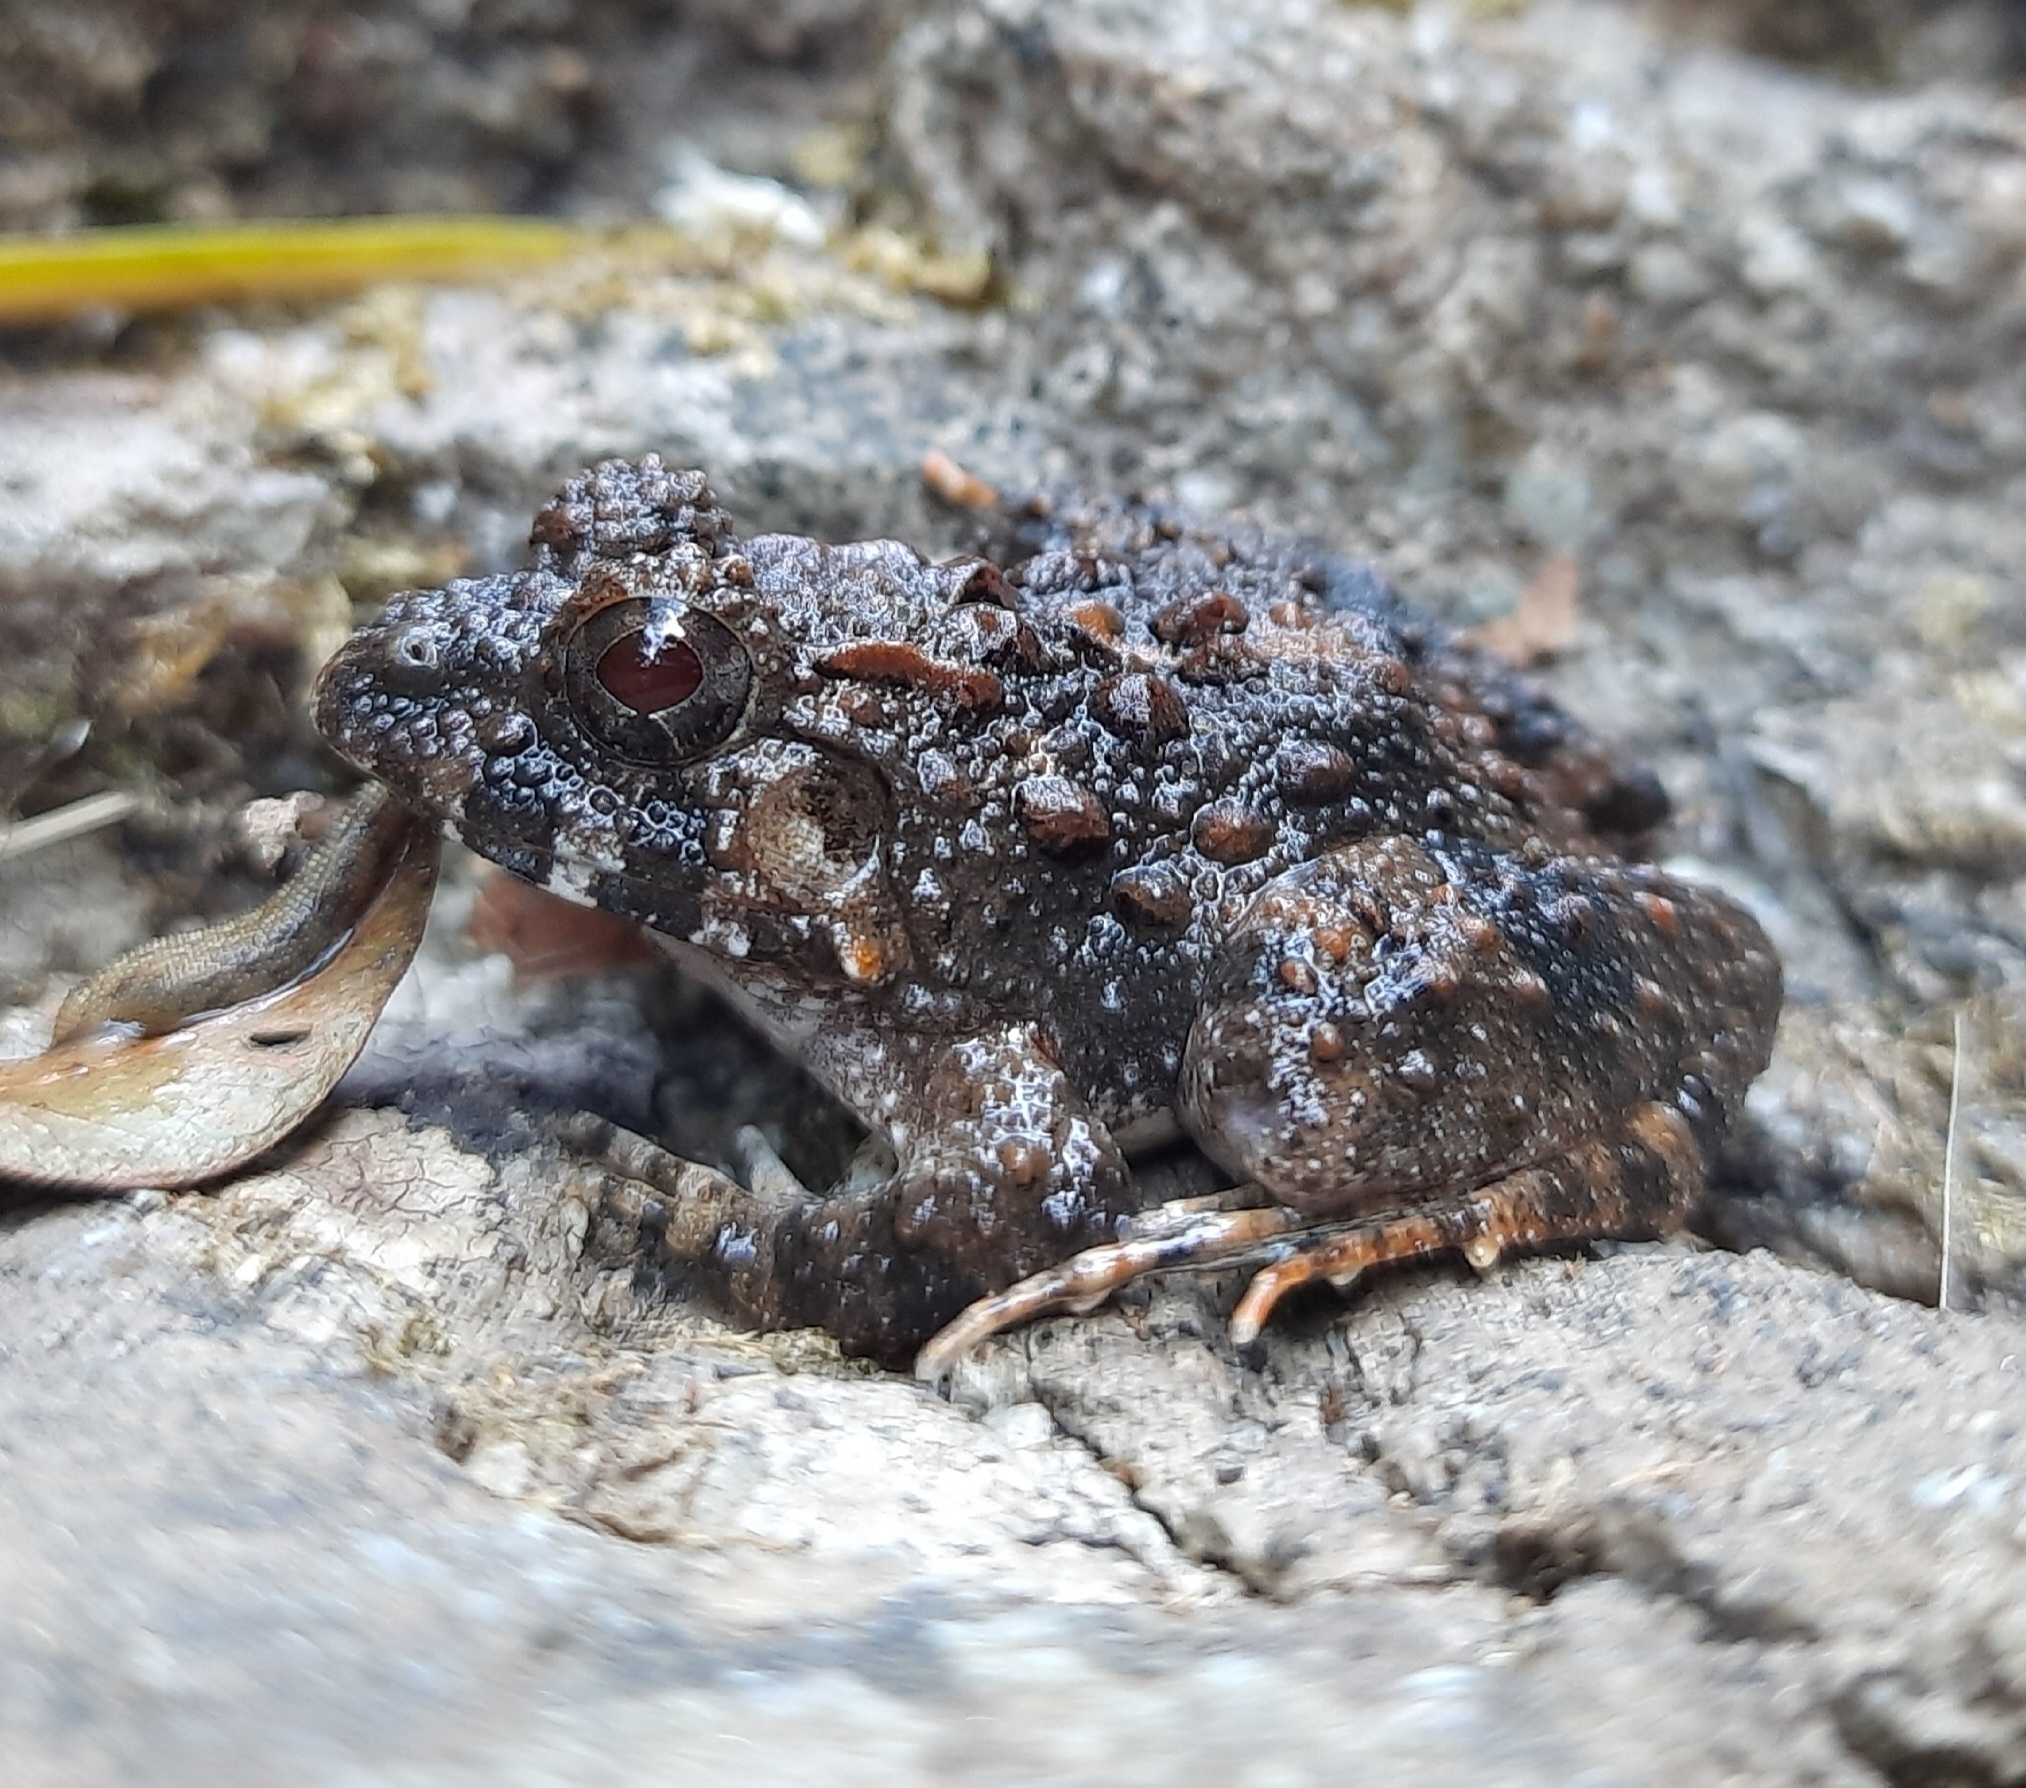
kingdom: Animalia
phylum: Chordata
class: Amphibia
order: Anura
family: Dicroglossidae
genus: Minervarya
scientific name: Minervarya keralensis
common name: Dubois' hill frog
